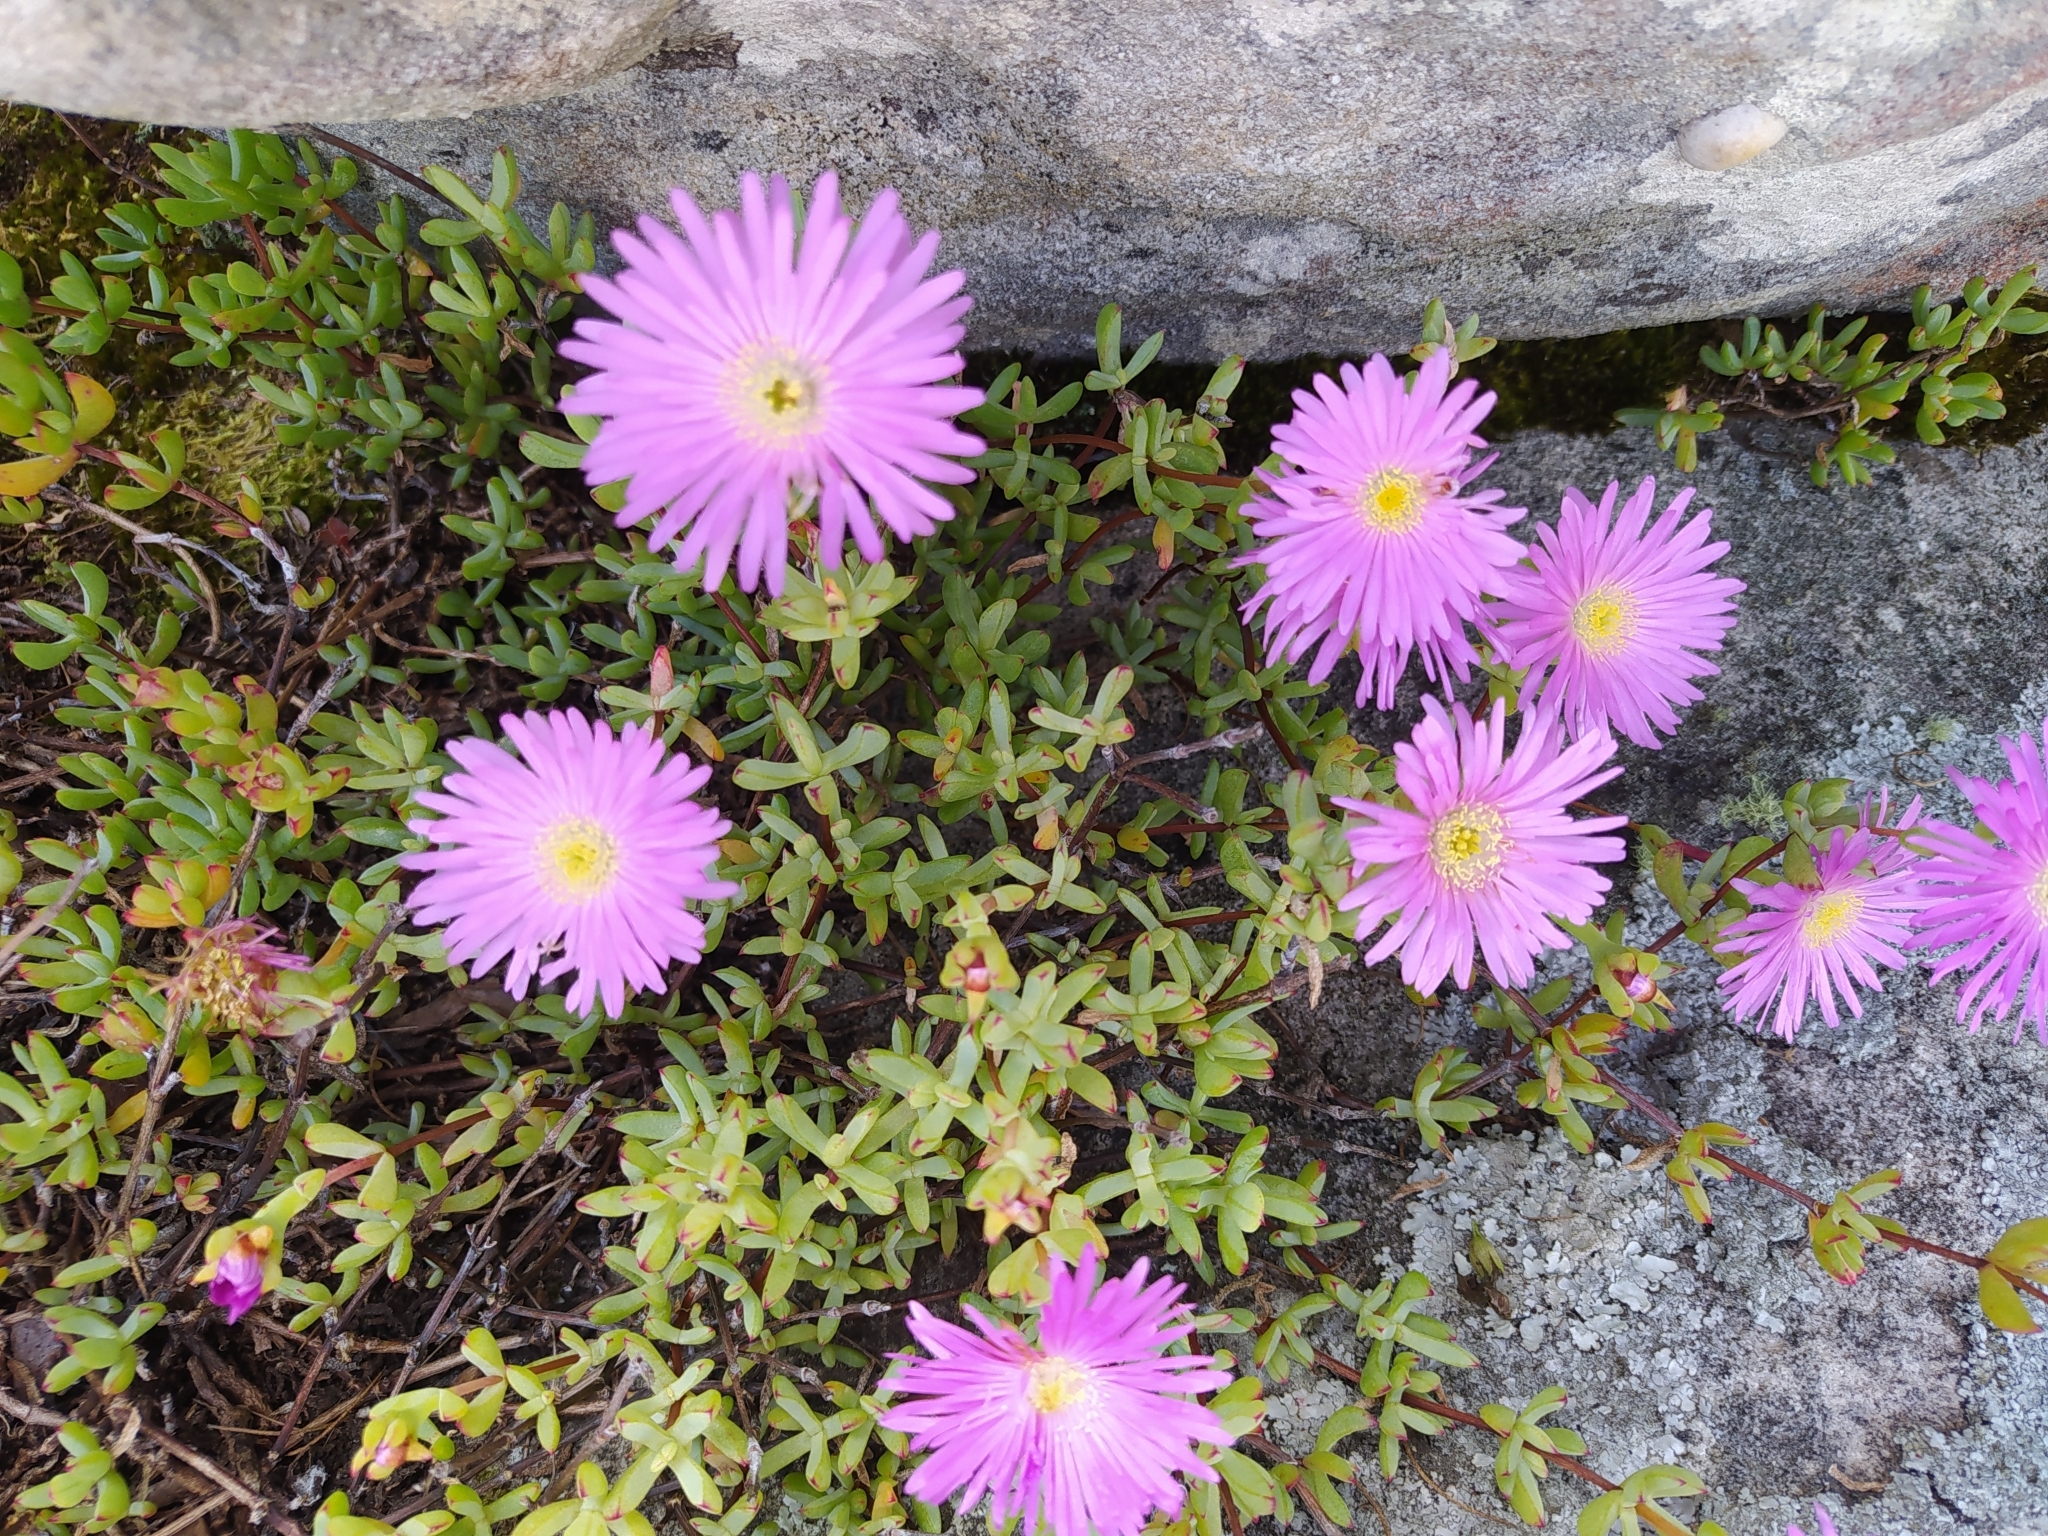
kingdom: Plantae
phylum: Tracheophyta
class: Magnoliopsida
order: Caryophyllales
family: Aizoaceae
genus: Oscularia
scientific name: Oscularia falciformis
